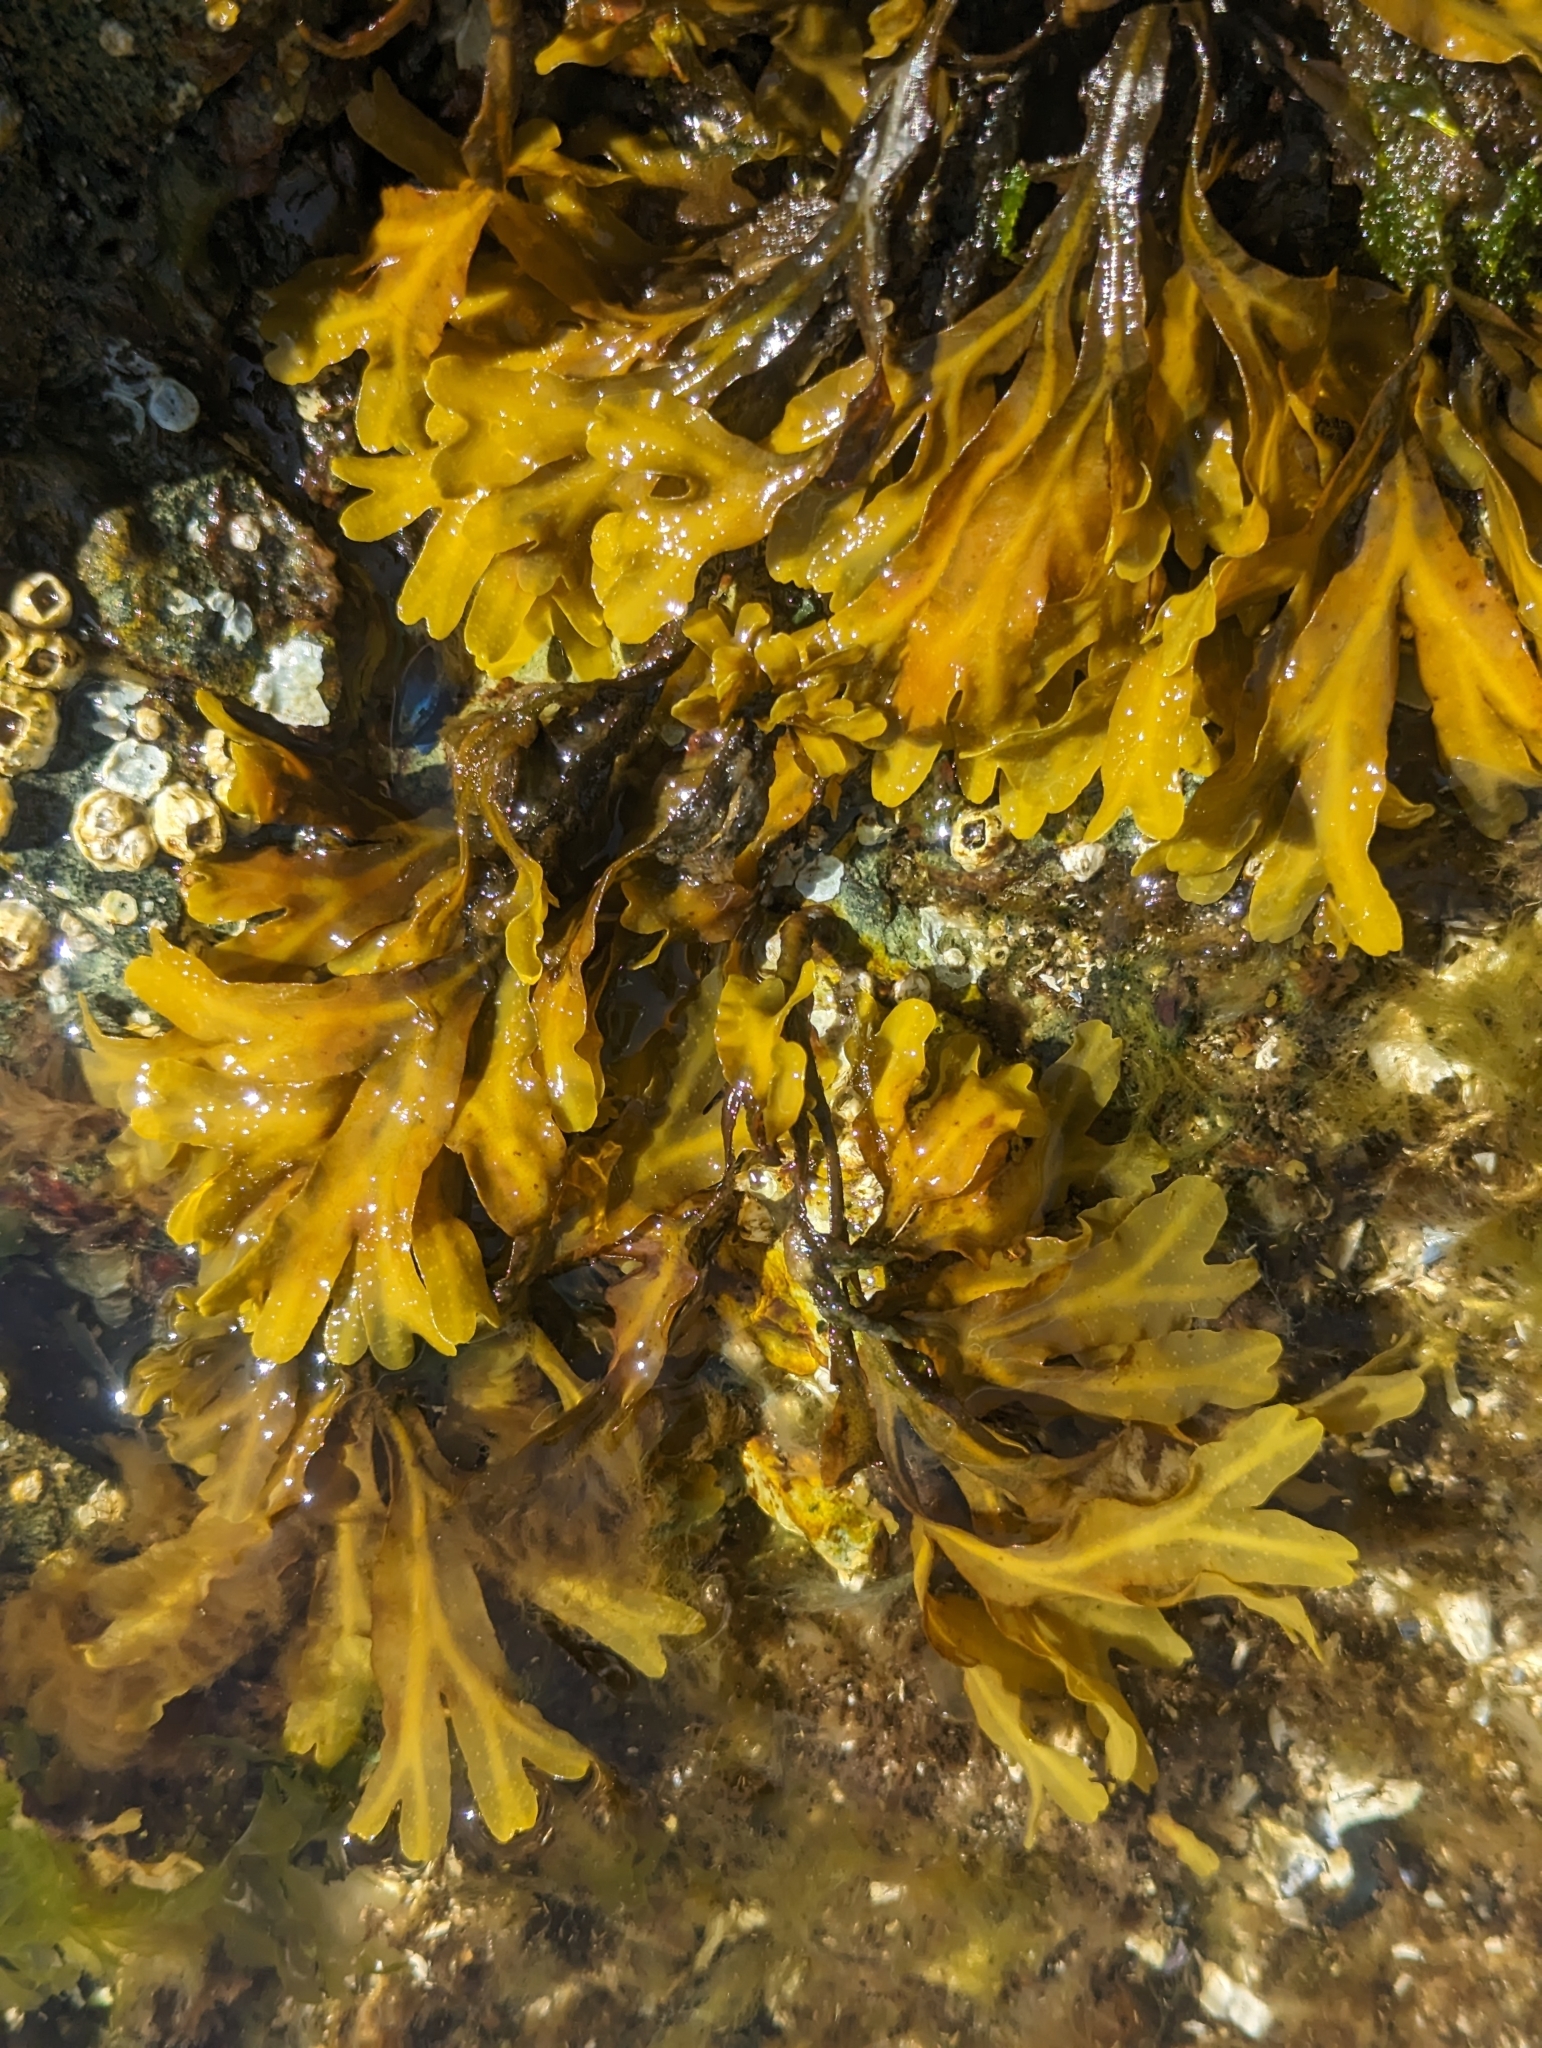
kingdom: Chromista
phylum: Ochrophyta
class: Phaeophyceae
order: Fucales
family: Fucaceae
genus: Fucus
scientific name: Fucus distichus
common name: Rockweed
